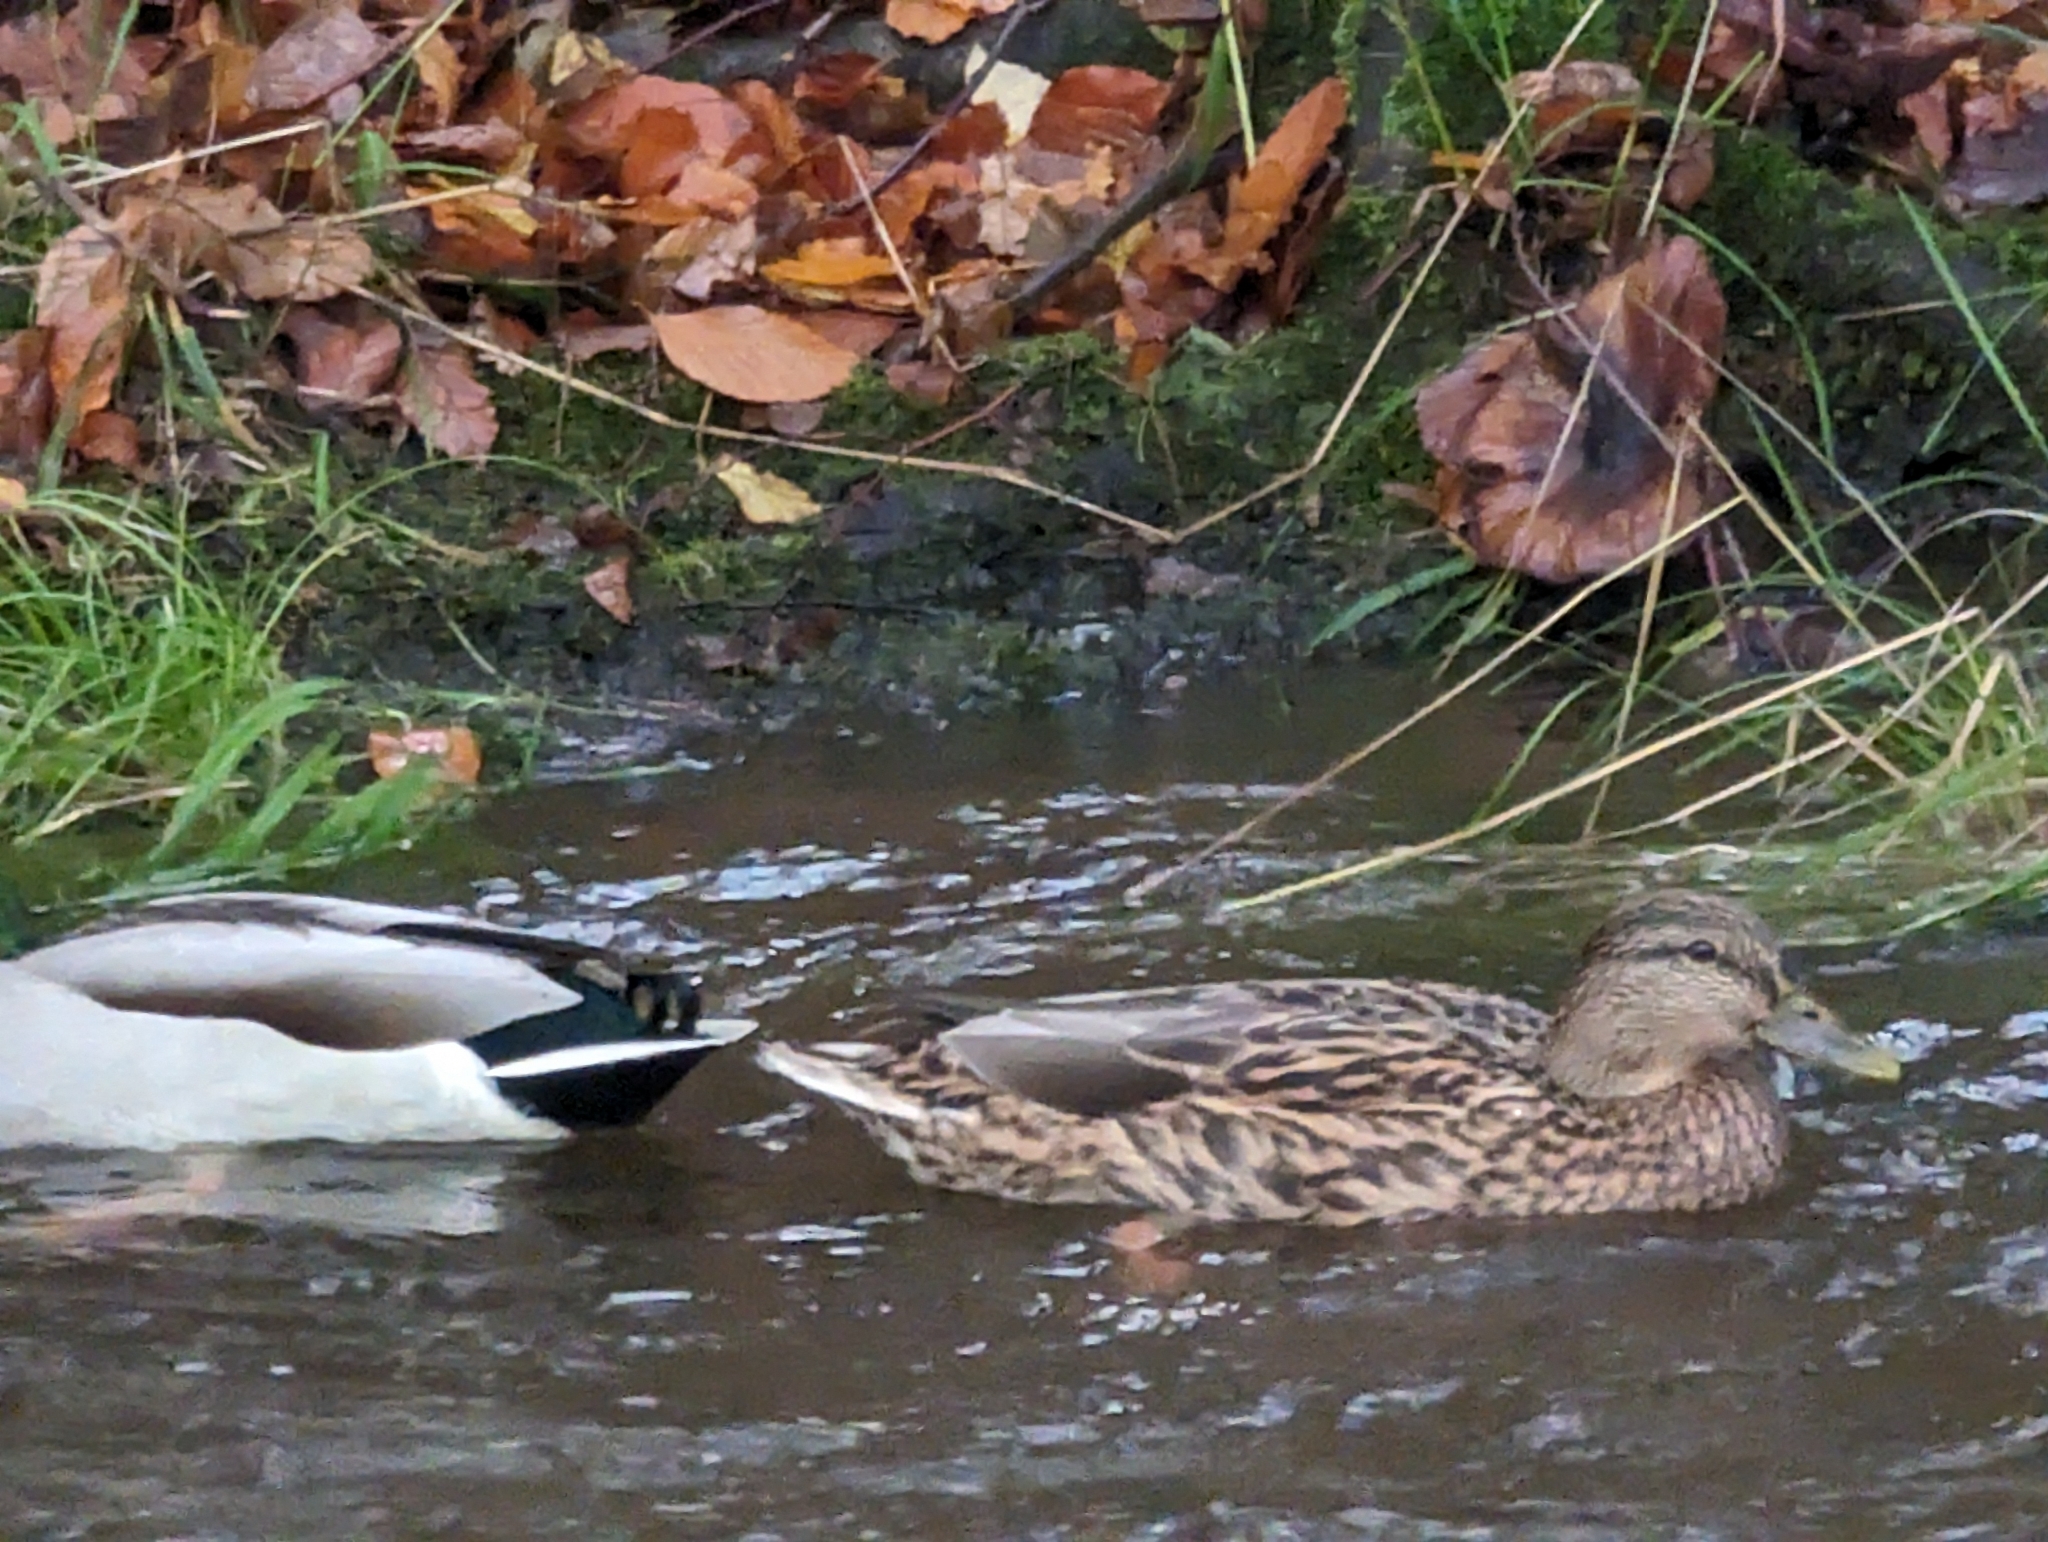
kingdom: Animalia
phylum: Chordata
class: Aves
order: Anseriformes
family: Anatidae
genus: Anas
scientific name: Anas platyrhynchos
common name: Mallard
